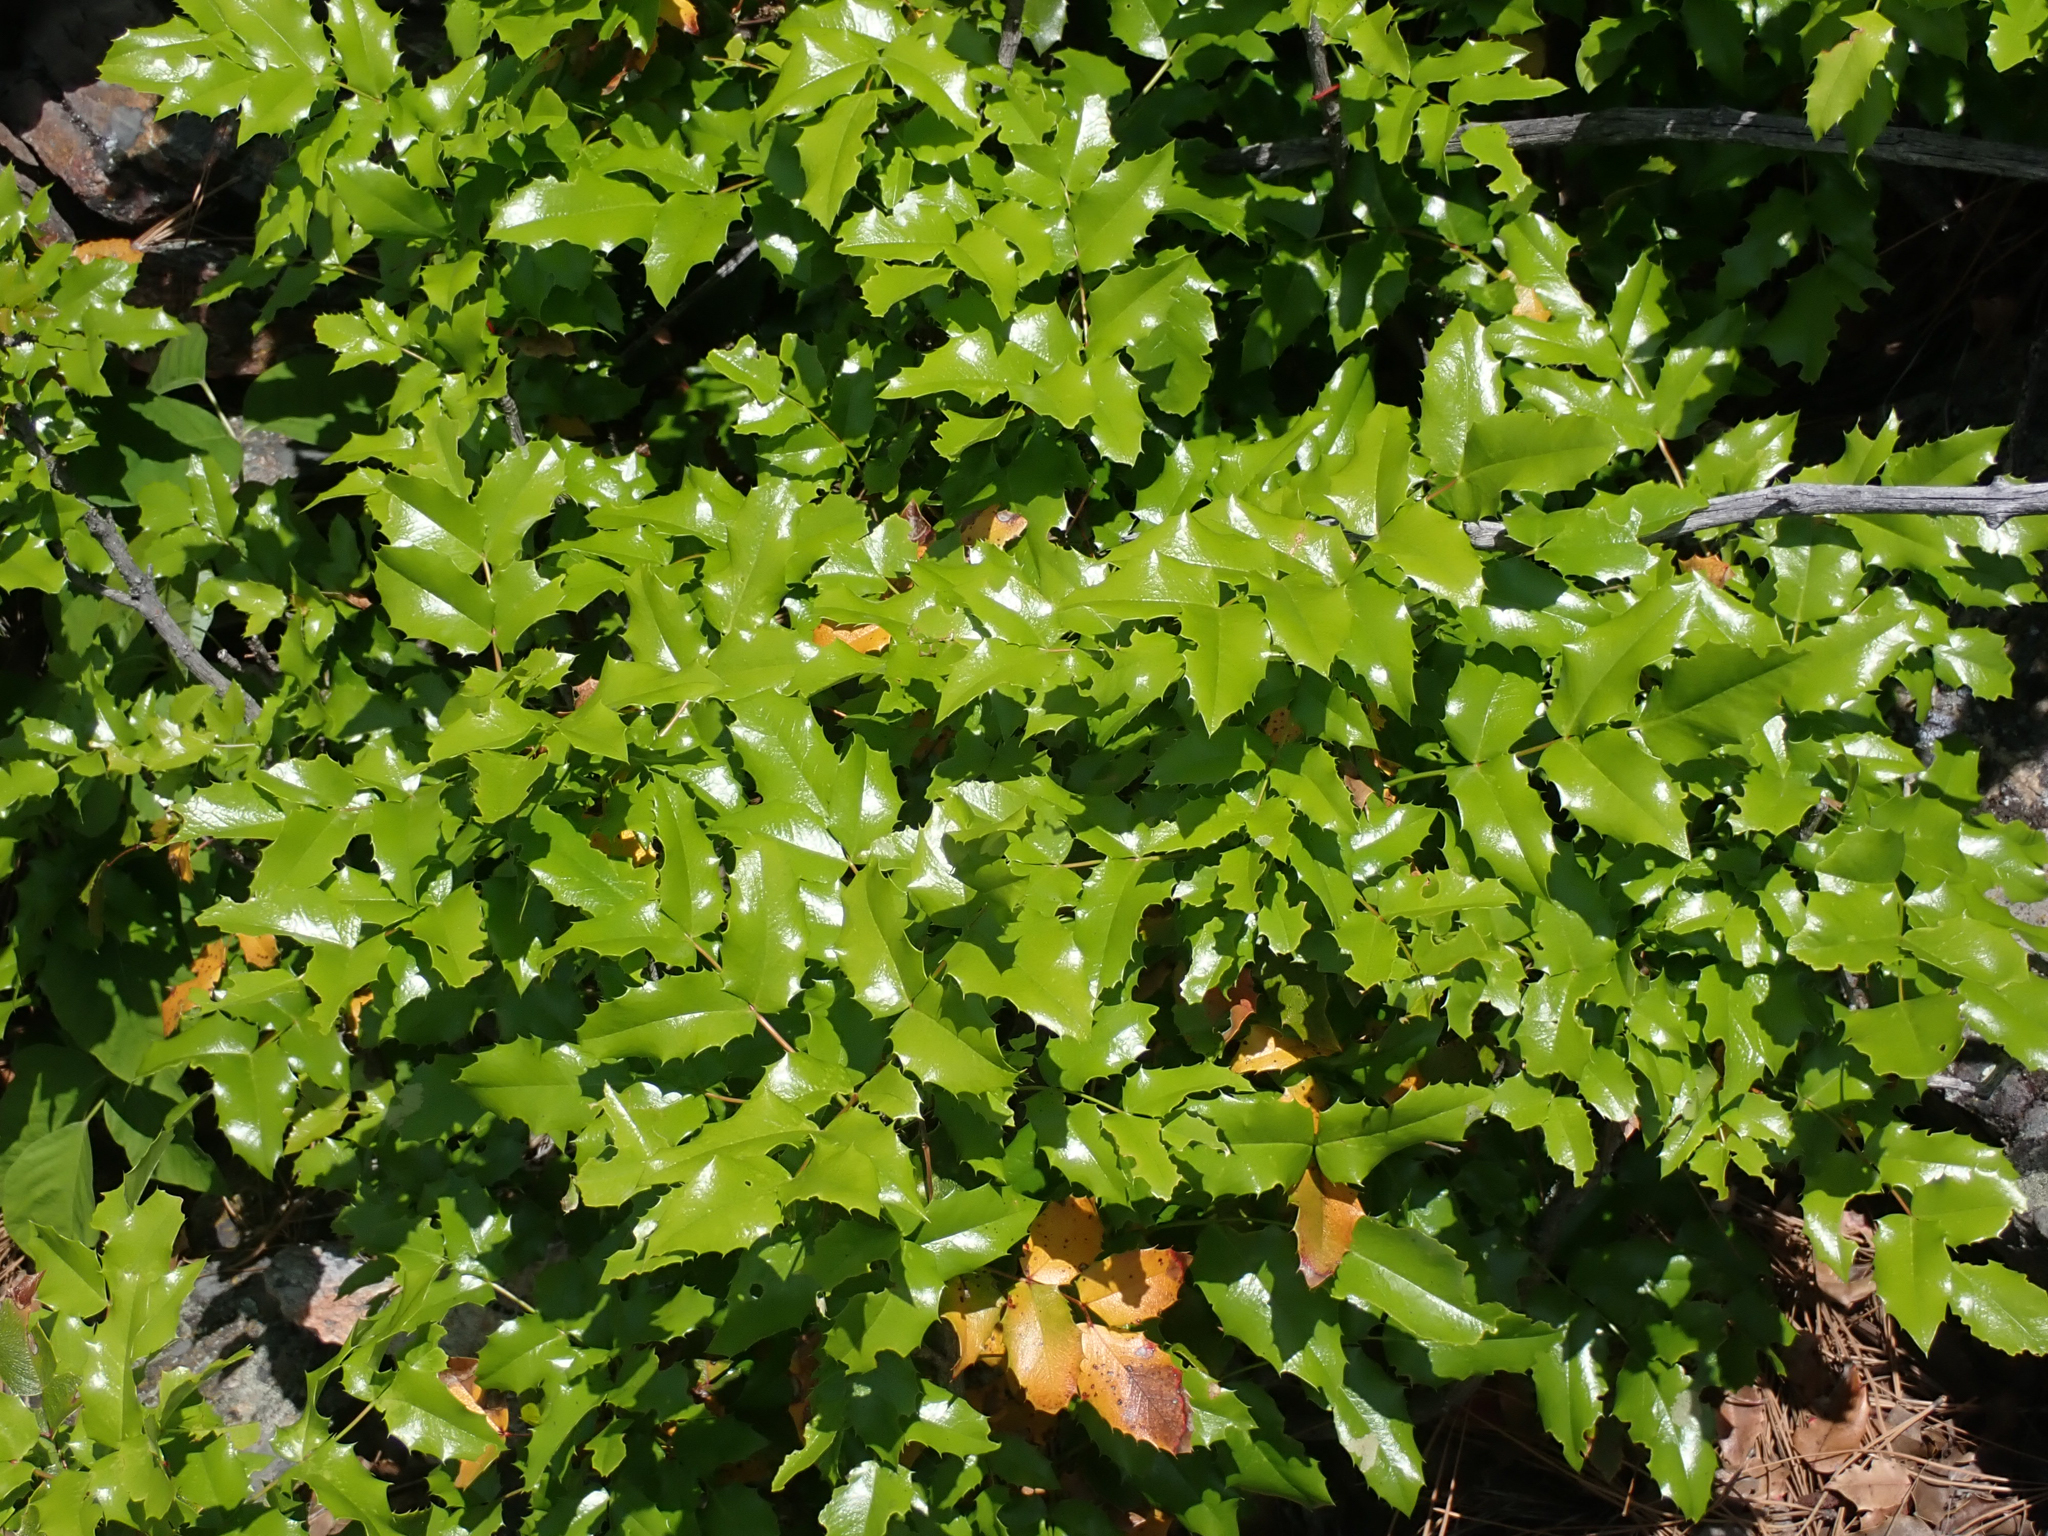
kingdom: Plantae
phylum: Tracheophyta
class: Magnoliopsida
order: Ranunculales
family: Berberidaceae
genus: Mahonia
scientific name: Mahonia aquifolium
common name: Oregon-grape
